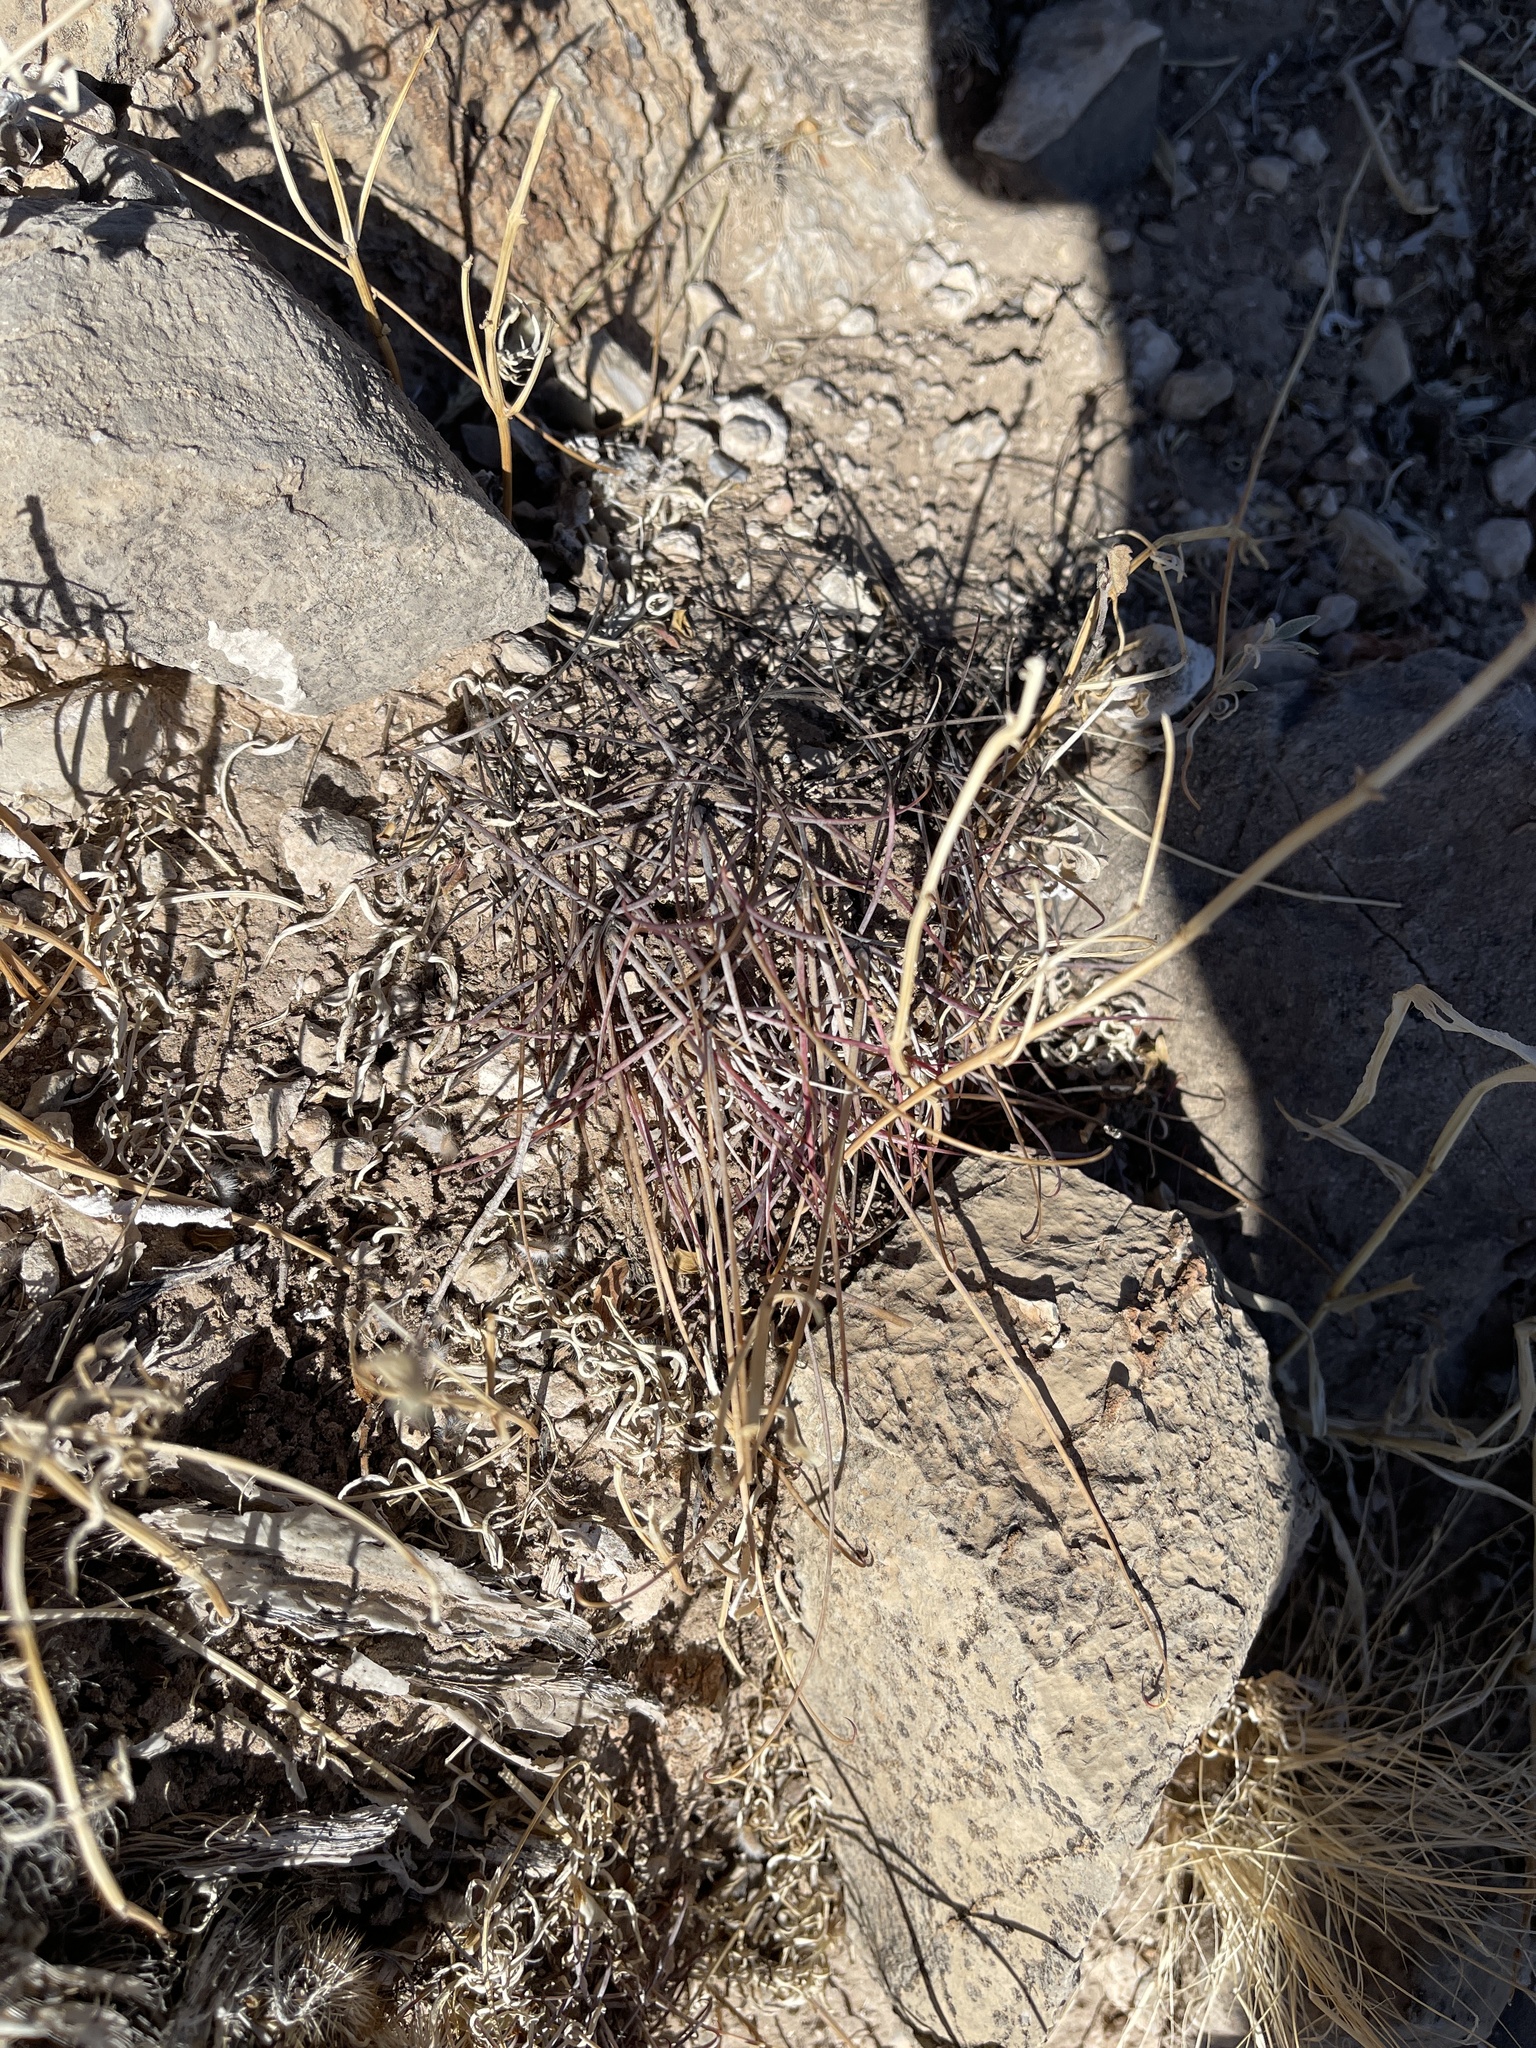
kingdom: Plantae
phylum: Tracheophyta
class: Magnoliopsida
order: Caryophyllales
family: Cactaceae
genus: Ferocactus
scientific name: Ferocactus uncinatus
